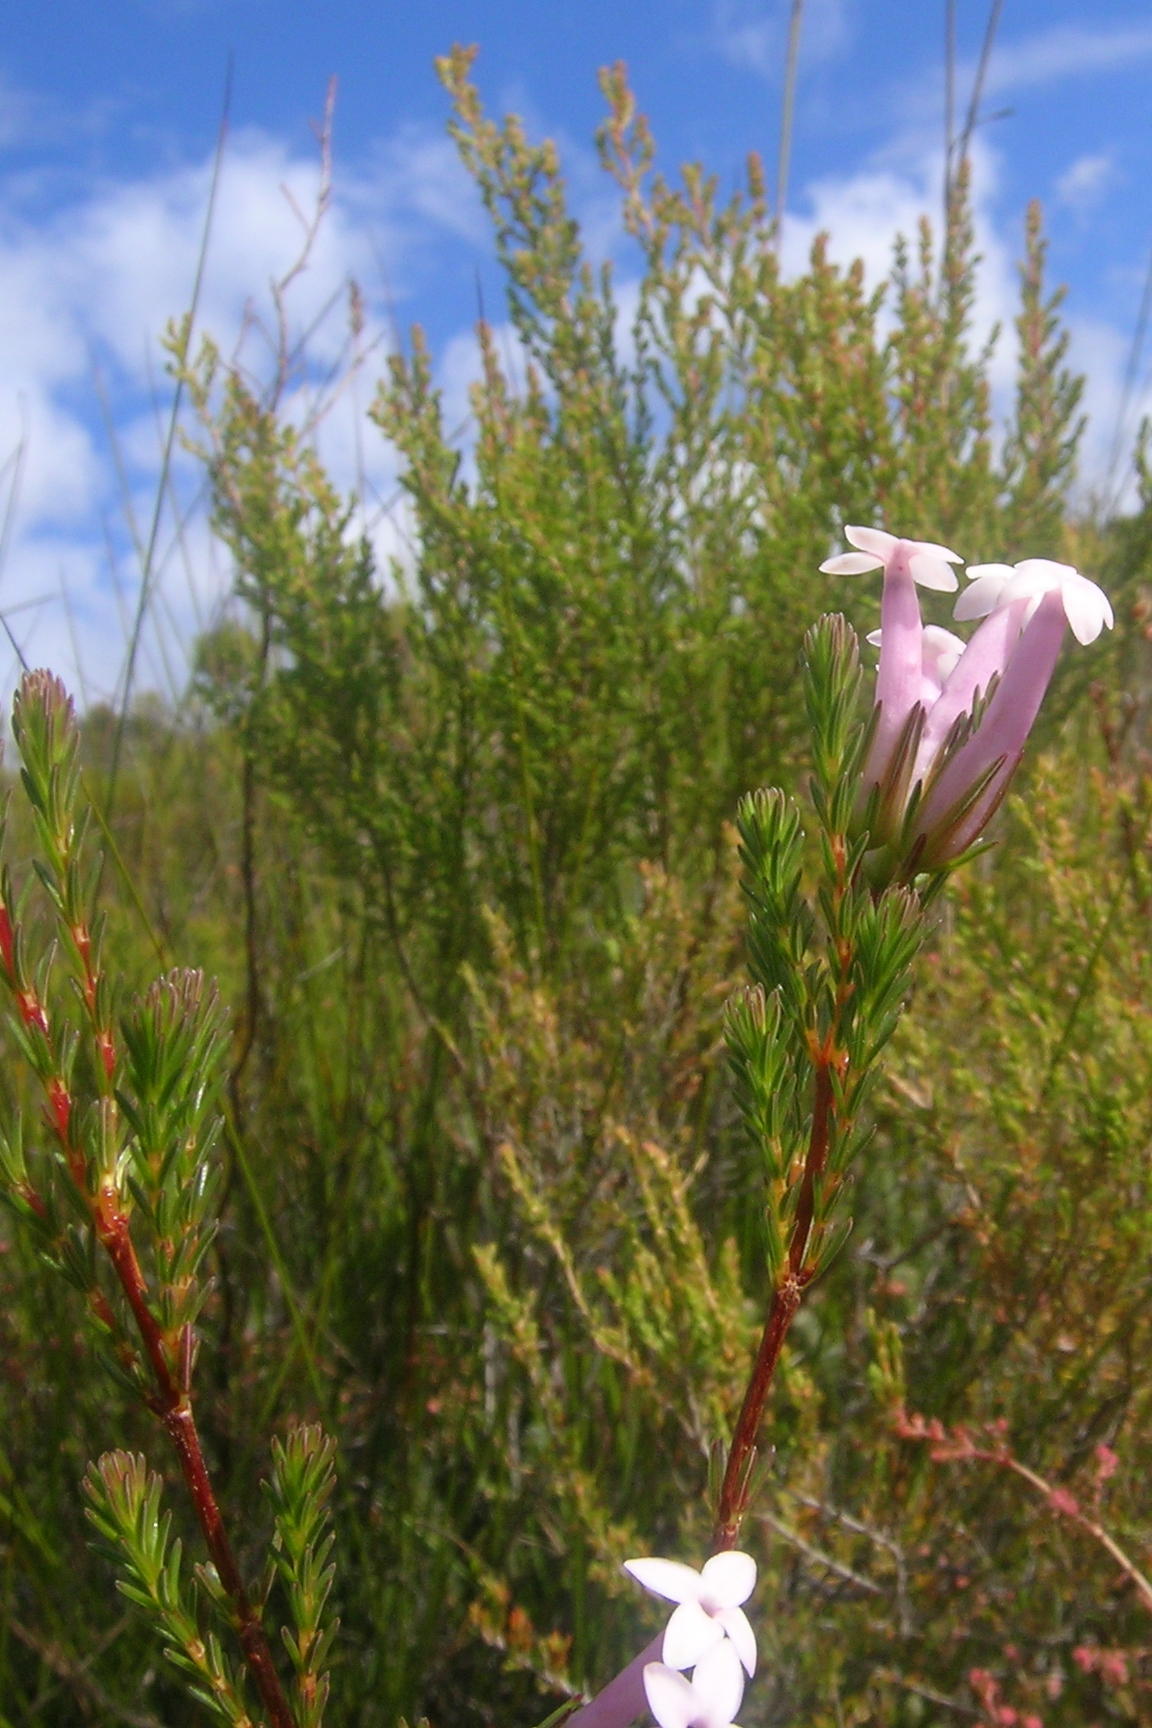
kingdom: Plantae
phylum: Tracheophyta
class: Magnoliopsida
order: Ericales
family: Ericaceae
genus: Erica
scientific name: Erica infundibuliformis
